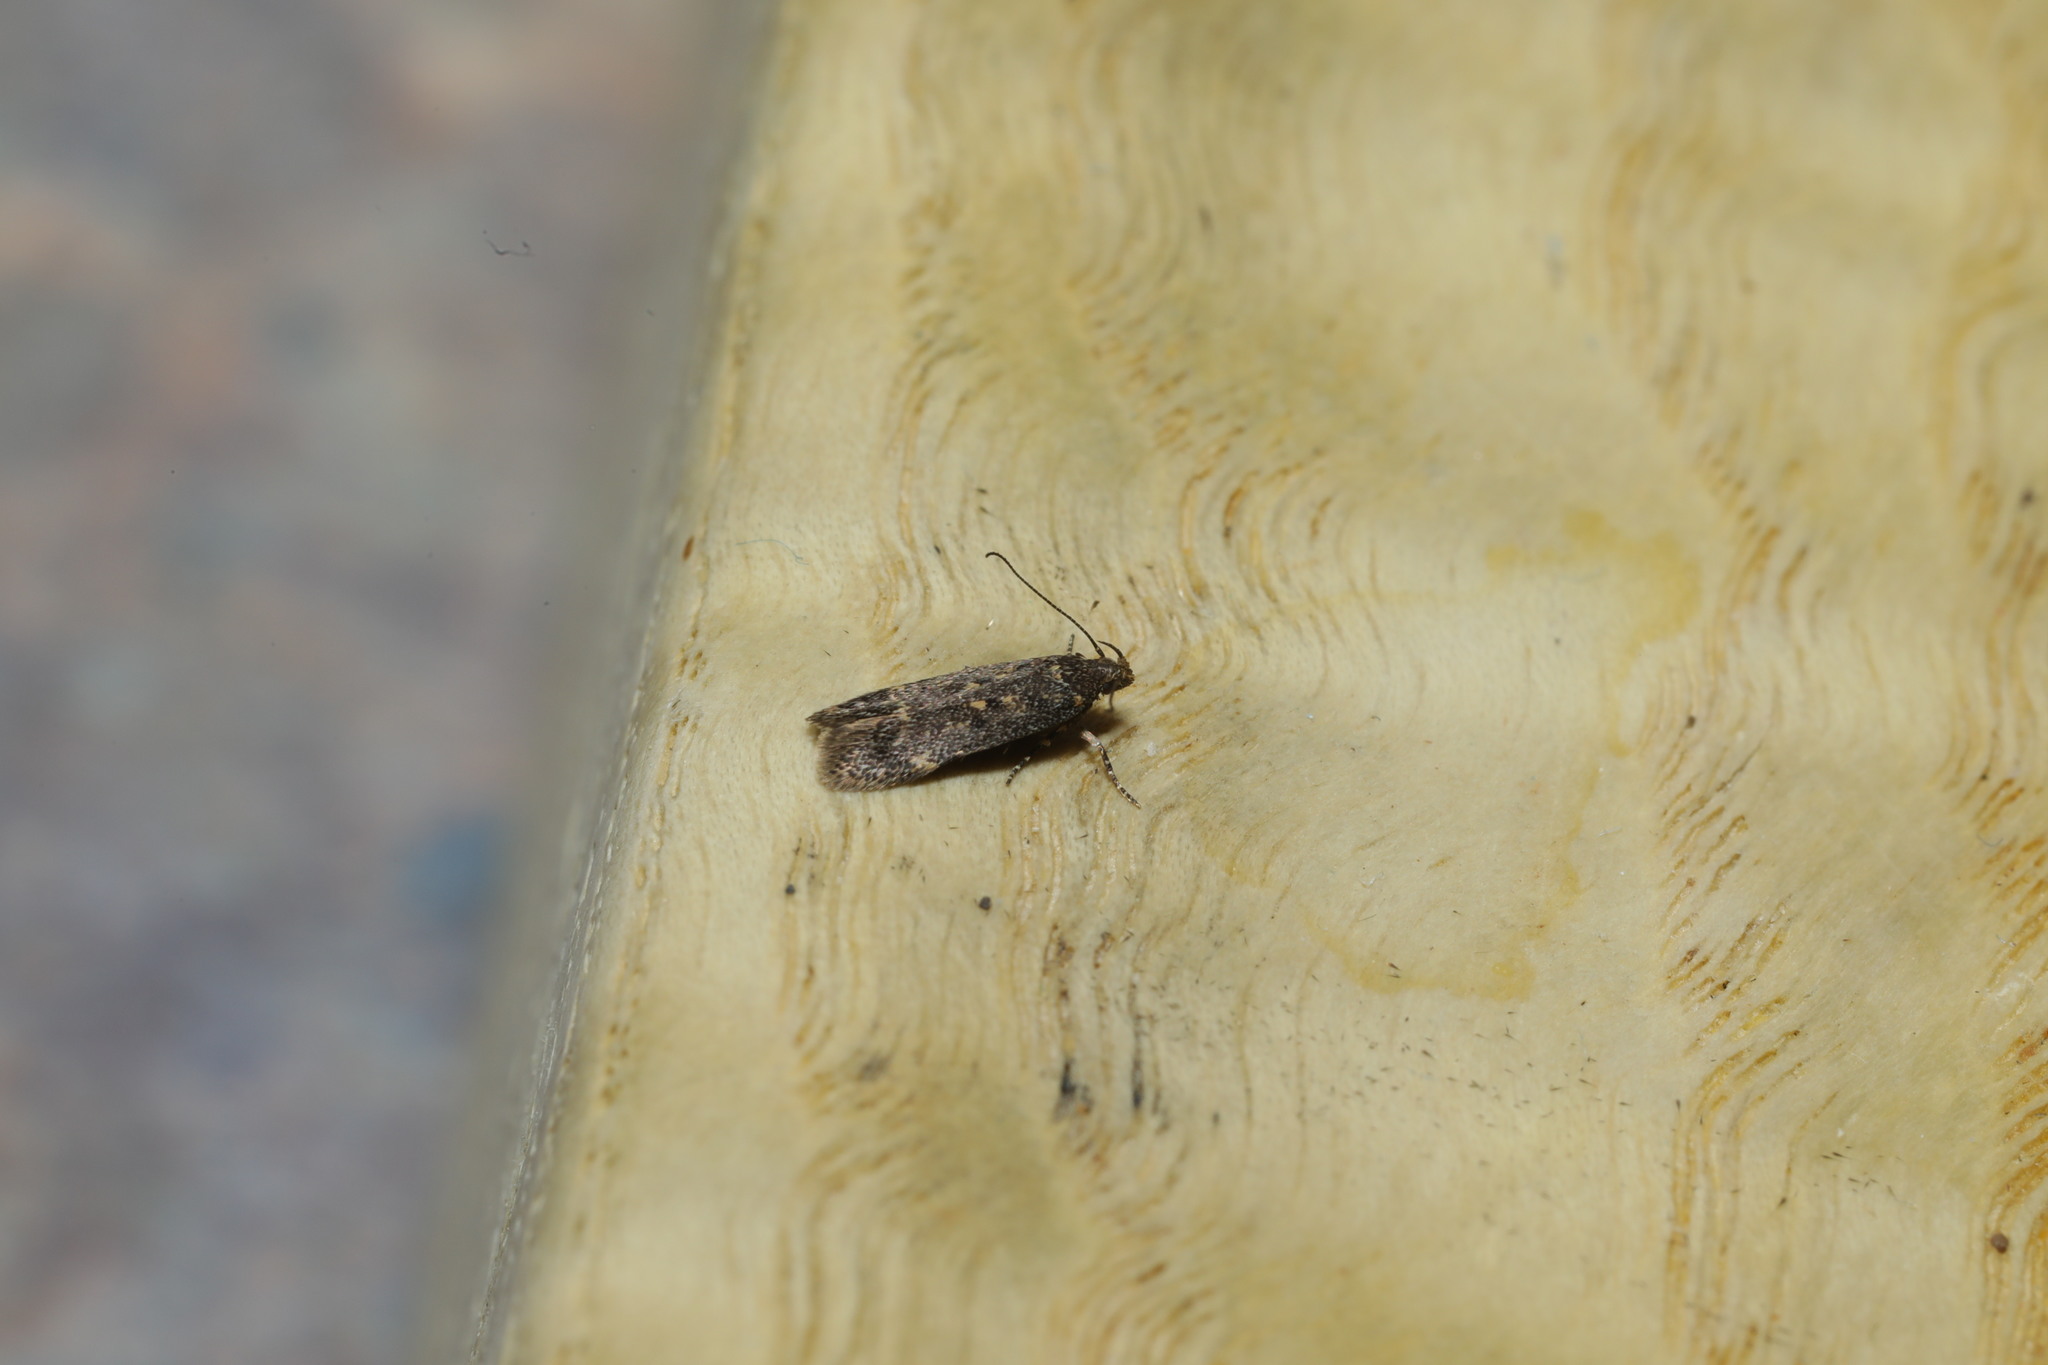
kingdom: Animalia
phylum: Arthropoda
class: Insecta
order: Lepidoptera
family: Gelechiidae
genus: Bryotropha
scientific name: Bryotropha affinis
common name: Dark groundling
